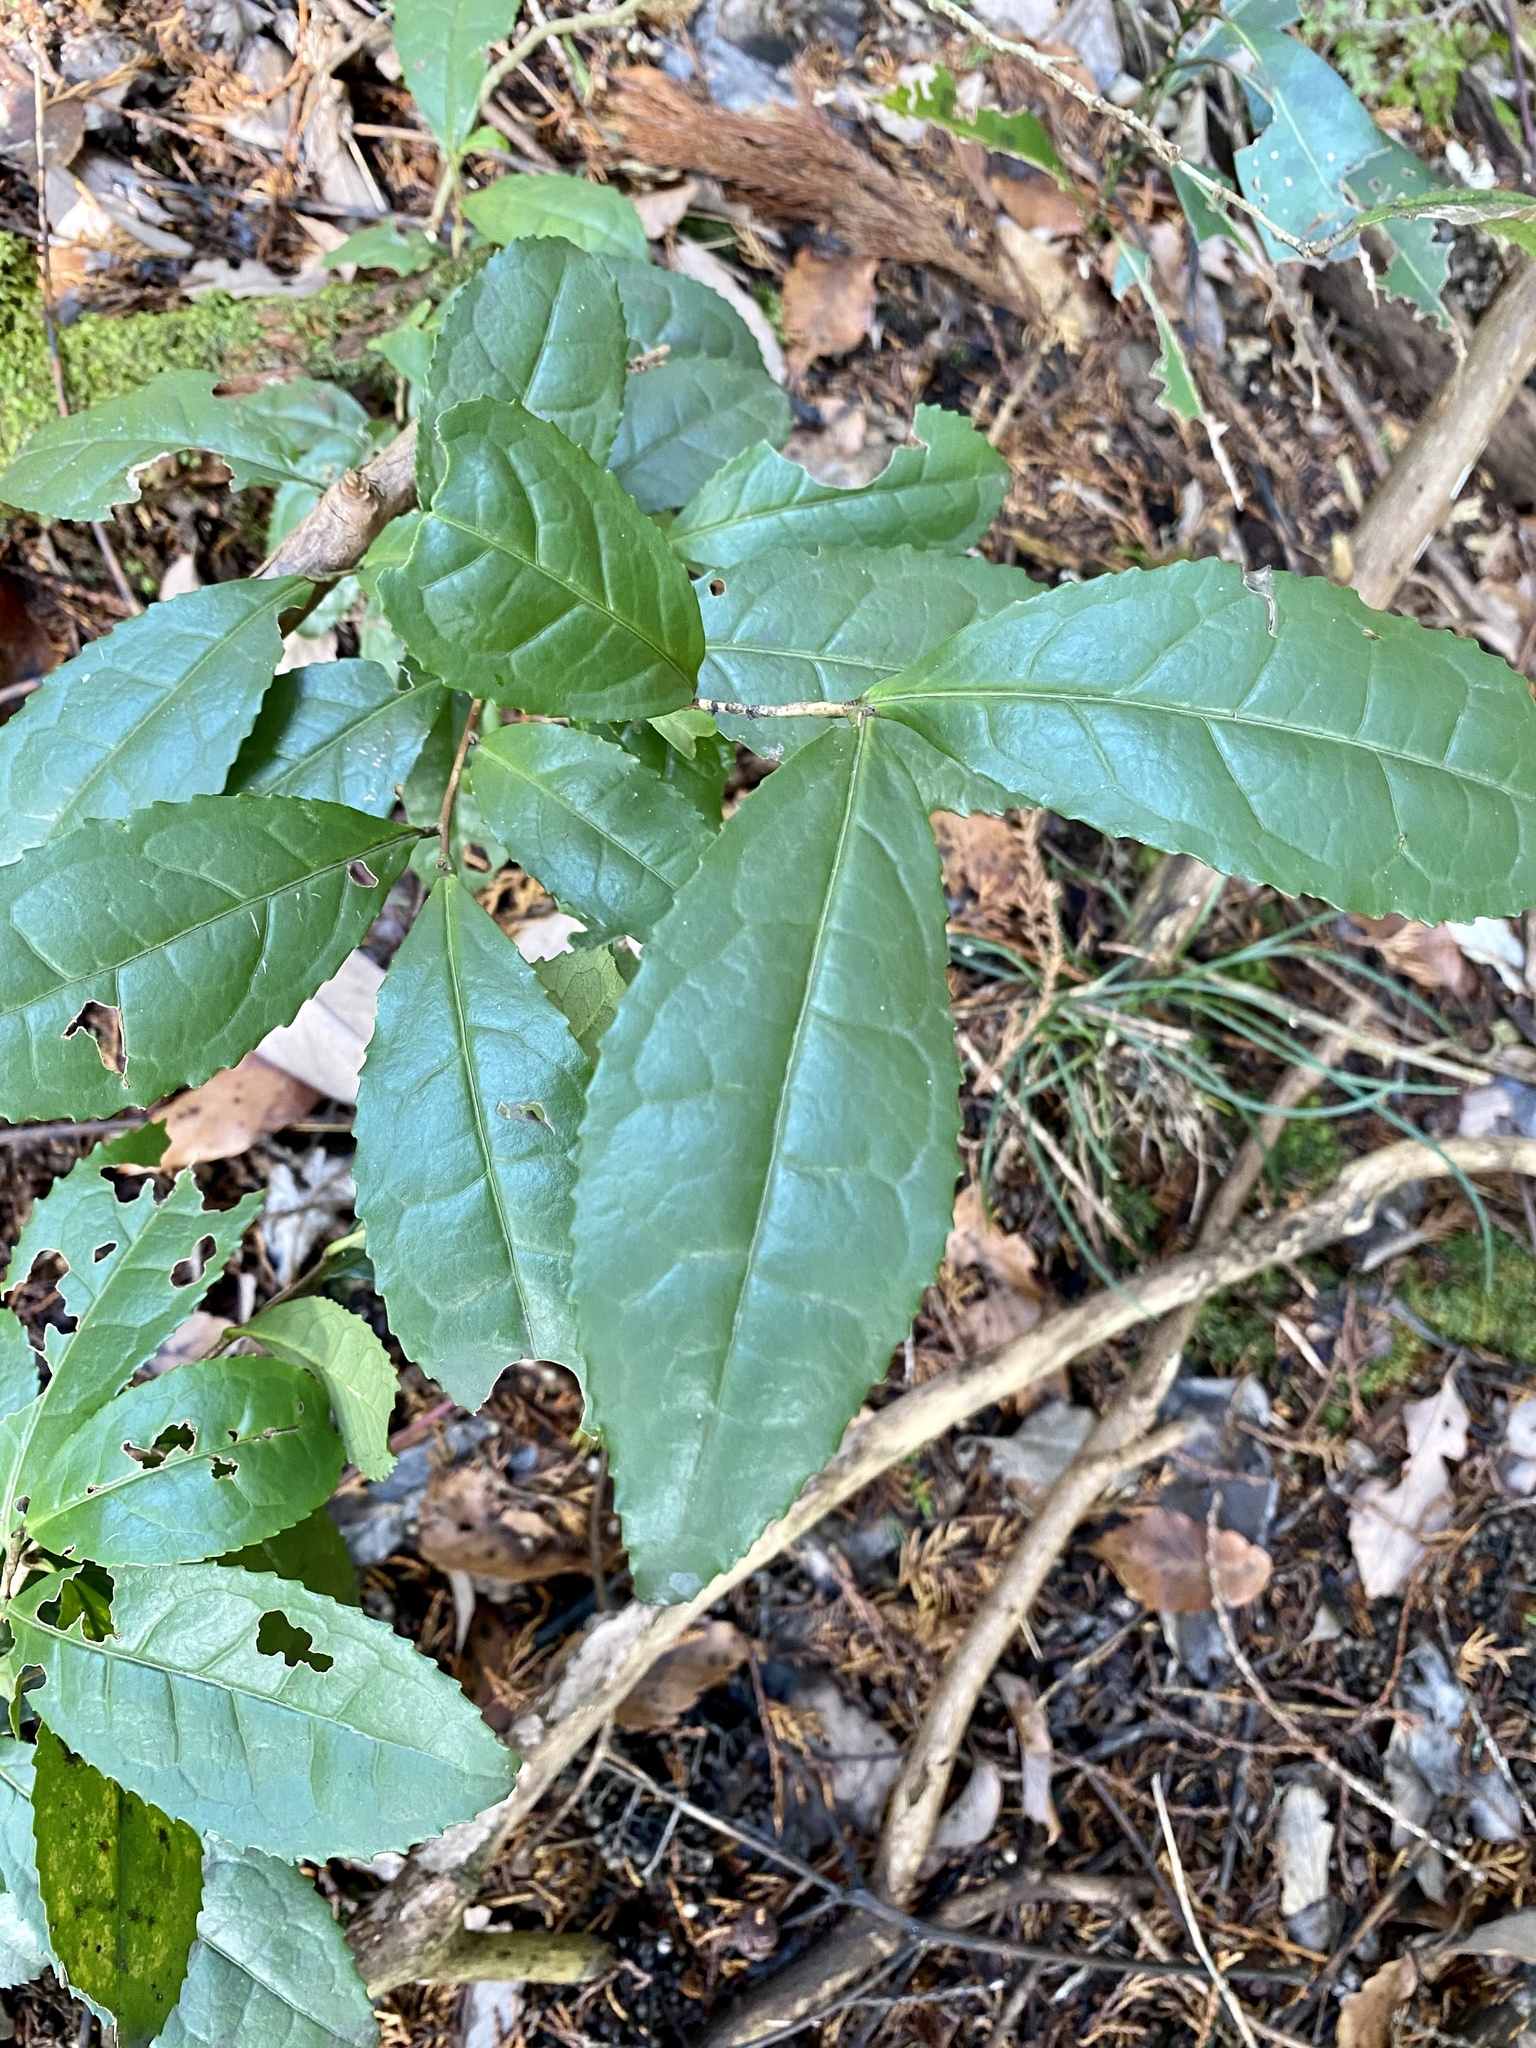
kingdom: Plantae
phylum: Tracheophyta
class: Magnoliopsida
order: Ericales
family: Theaceae
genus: Camellia
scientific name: Camellia sinensis
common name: Tea
